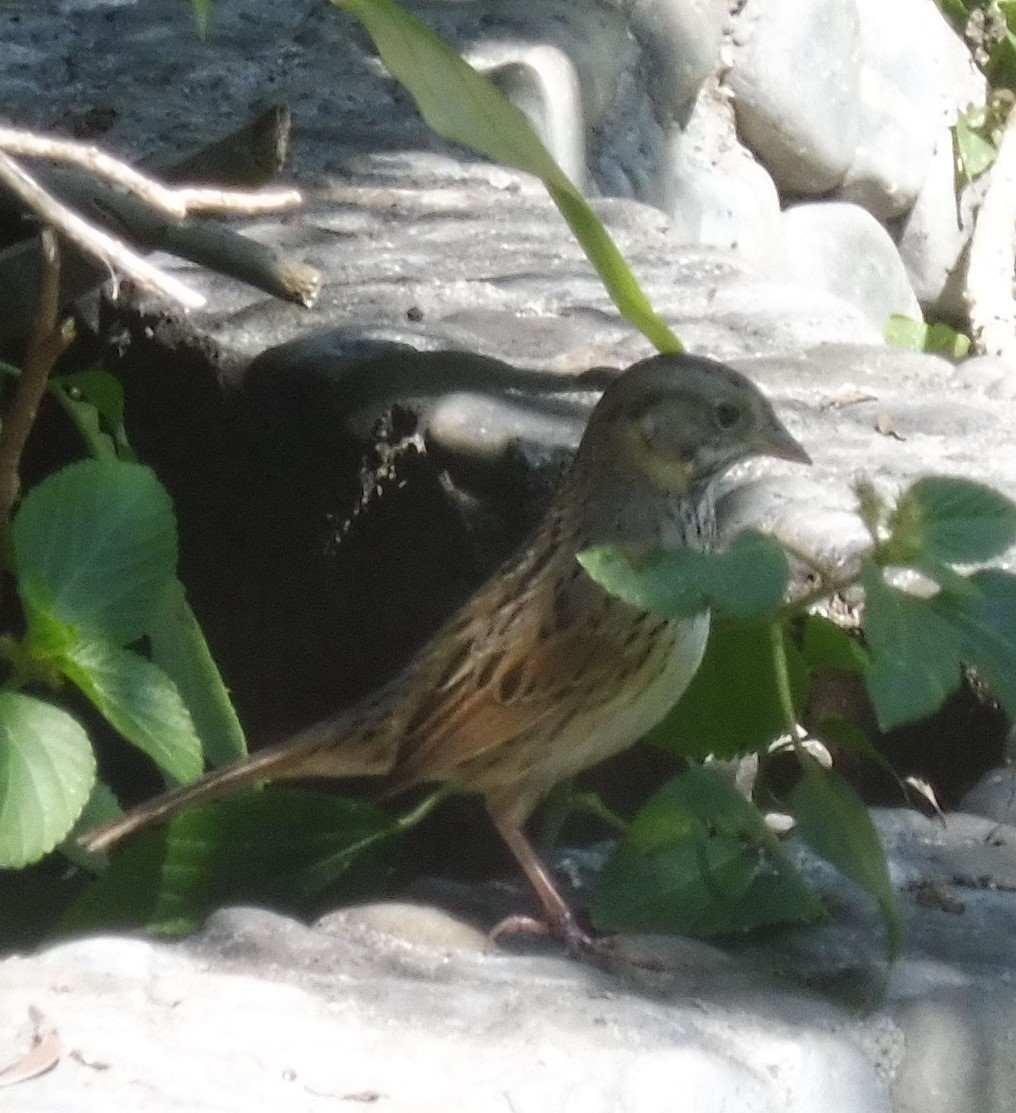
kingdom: Animalia
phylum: Chordata
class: Aves
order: Passeriformes
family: Passerellidae
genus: Melospiza
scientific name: Melospiza lincolnii
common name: Lincoln's sparrow
